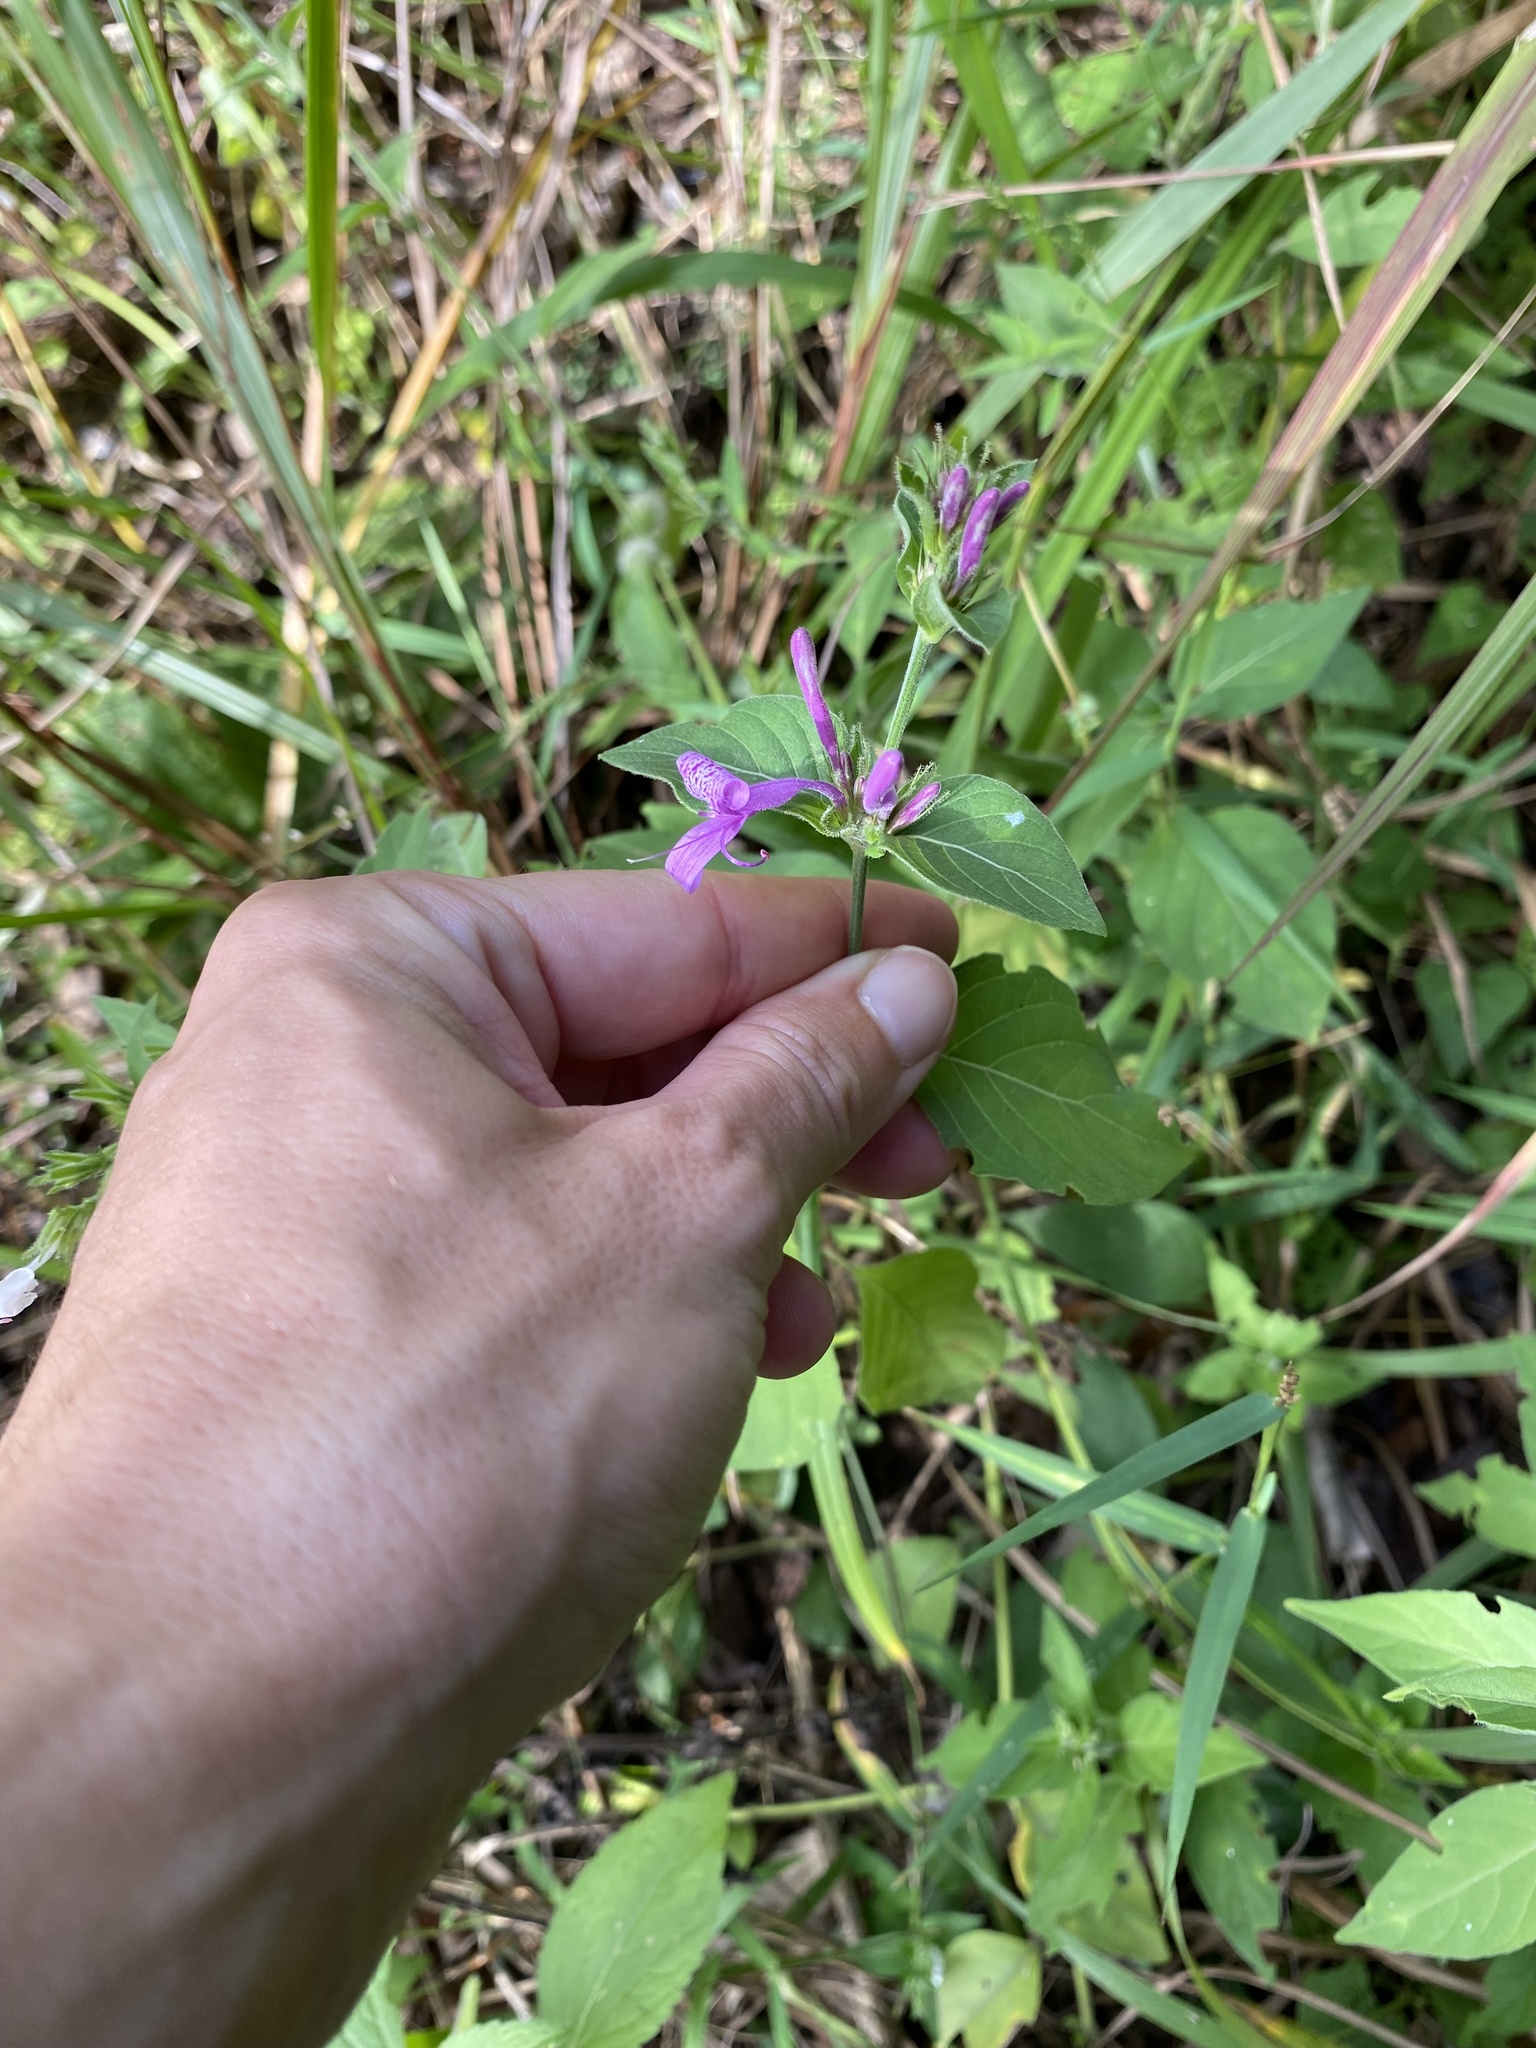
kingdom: Plantae
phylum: Tracheophyta
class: Magnoliopsida
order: Lamiales
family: Acanthaceae
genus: Dicliptera
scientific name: Dicliptera clinopodia
